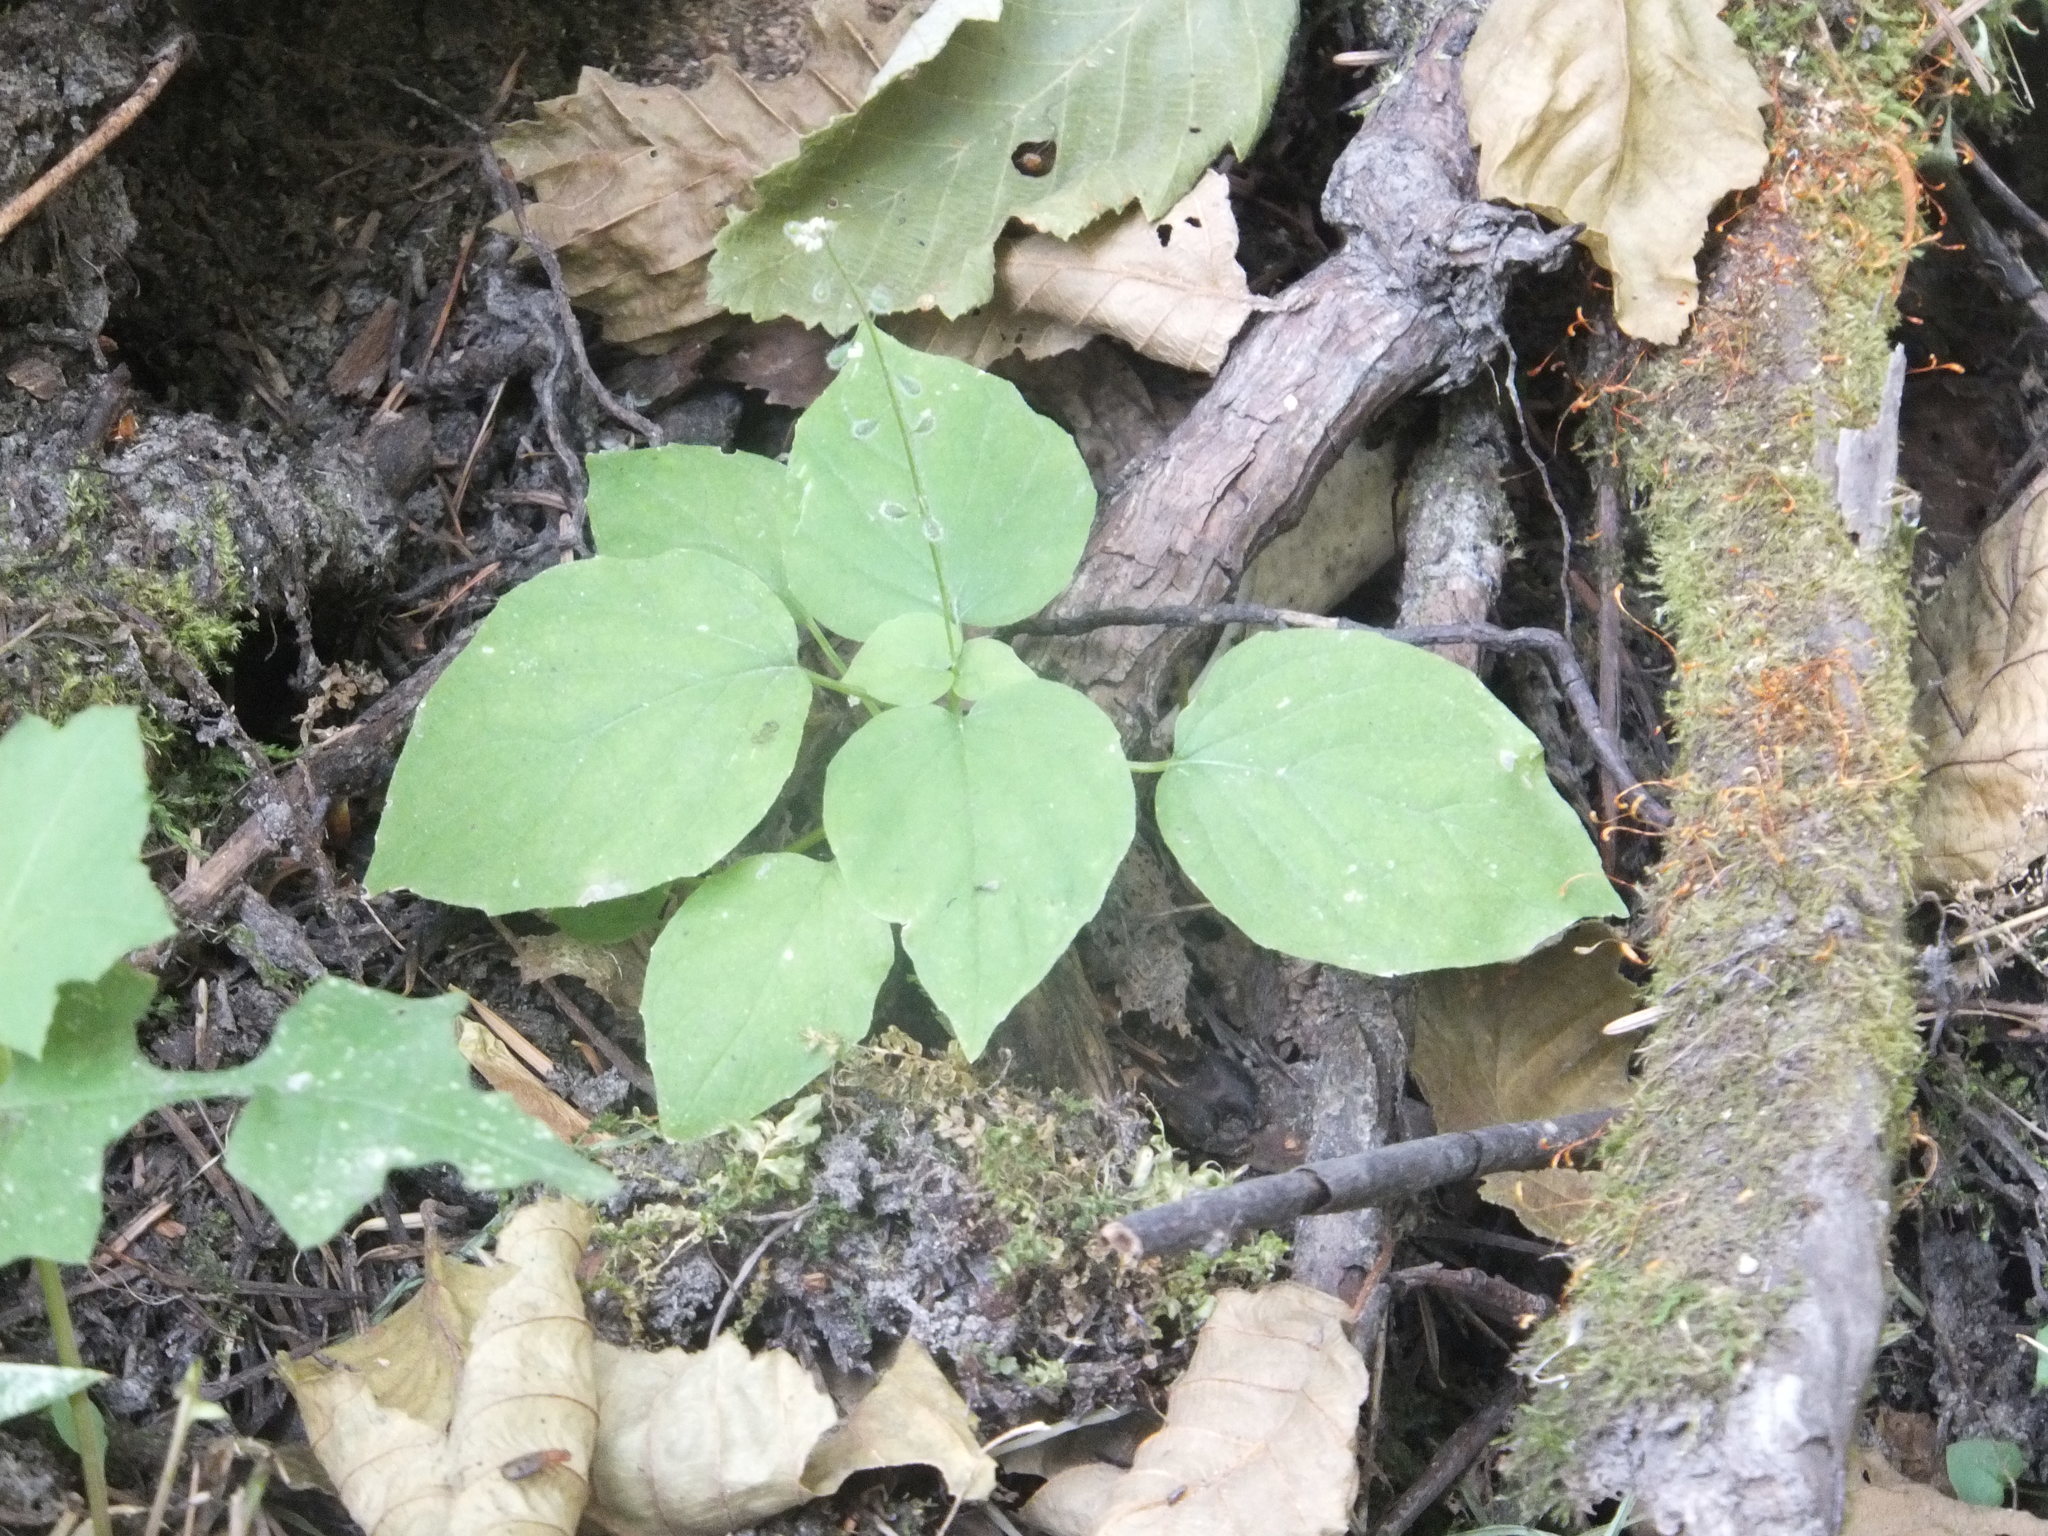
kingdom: Plantae
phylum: Tracheophyta
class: Magnoliopsida
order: Myrtales
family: Onagraceae
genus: Circaea
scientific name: Circaea alpina
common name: Alpine enchanter's-nightshade
